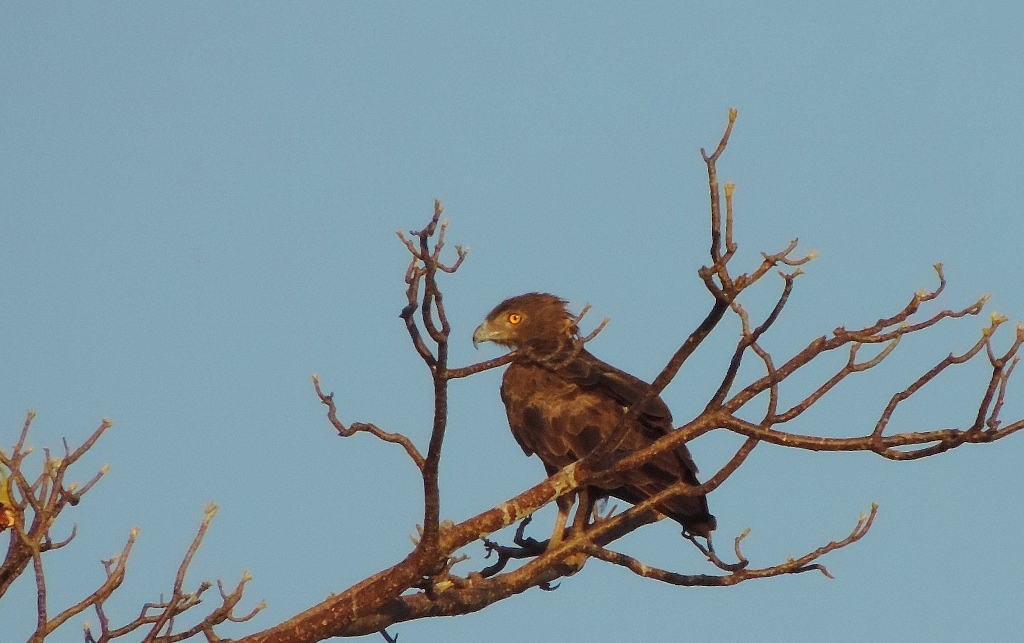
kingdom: Animalia
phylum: Chordata
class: Aves
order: Accipitriformes
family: Accipitridae
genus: Circaetus
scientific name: Circaetus cinereus
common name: Brown snake eagle
